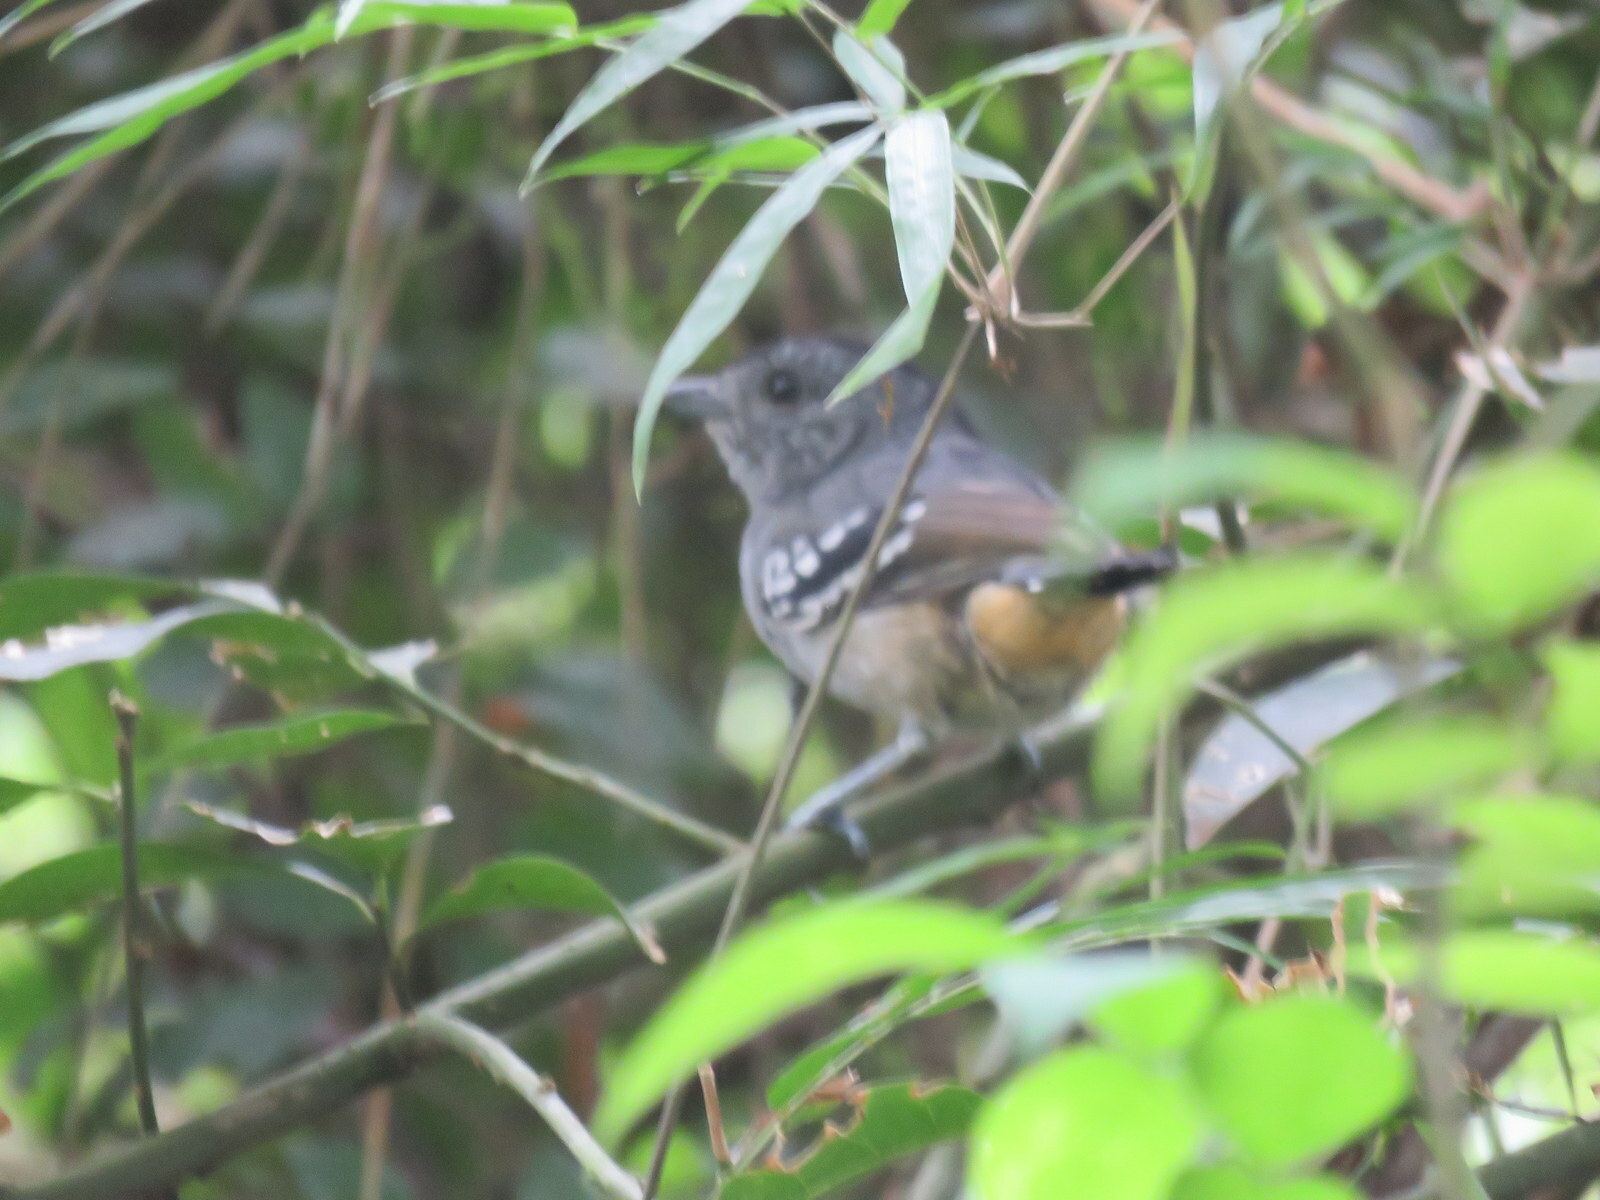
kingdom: Animalia
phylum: Chordata
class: Aves
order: Passeriformes
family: Thamnophilidae
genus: Thamnophilus
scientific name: Thamnophilus caerulescens
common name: Variable antshrike
